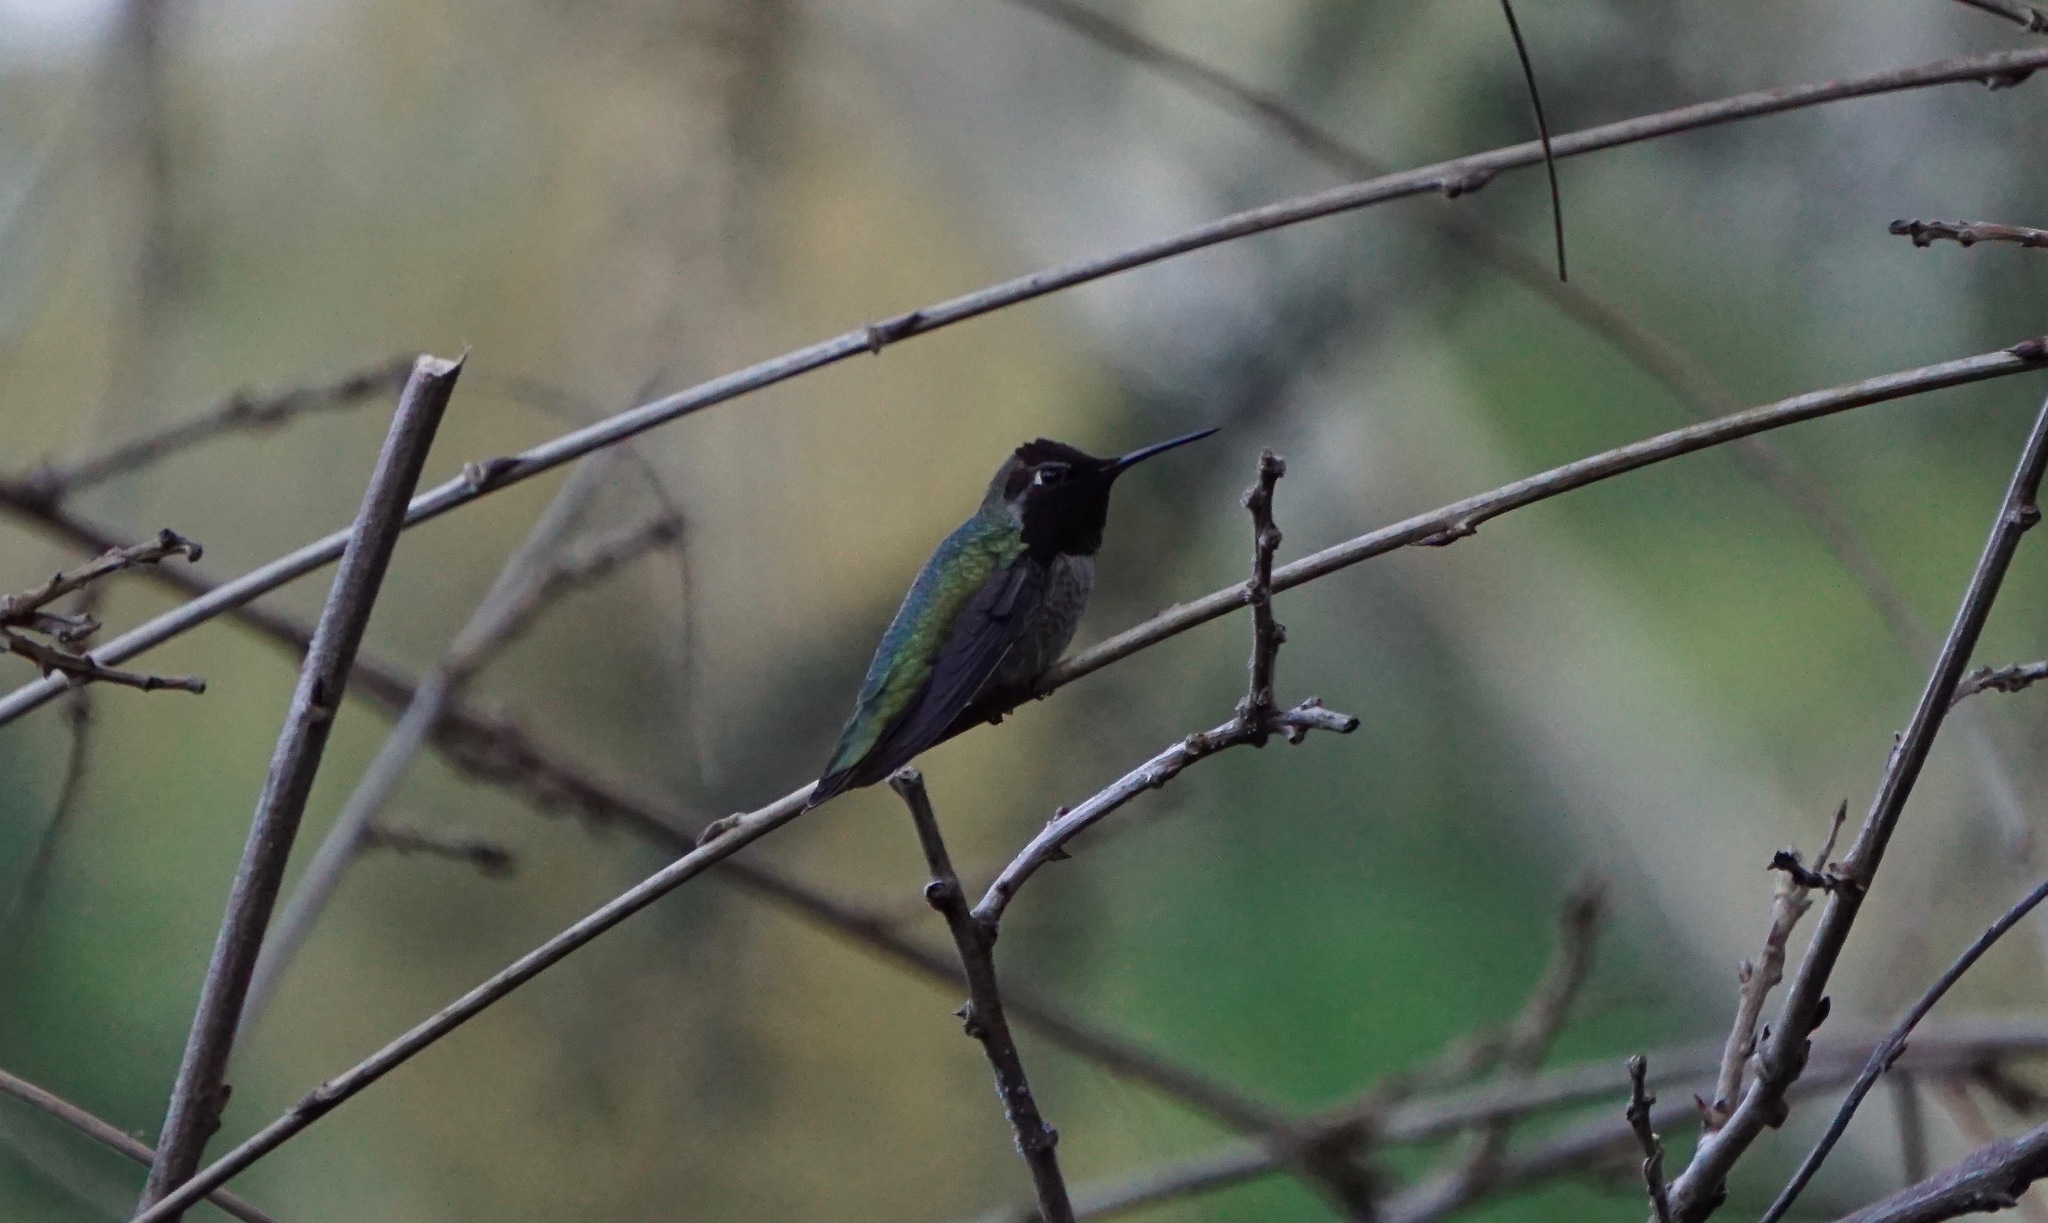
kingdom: Animalia
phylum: Chordata
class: Aves
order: Apodiformes
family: Trochilidae
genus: Calypte
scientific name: Calypte anna
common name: Anna's hummingbird
